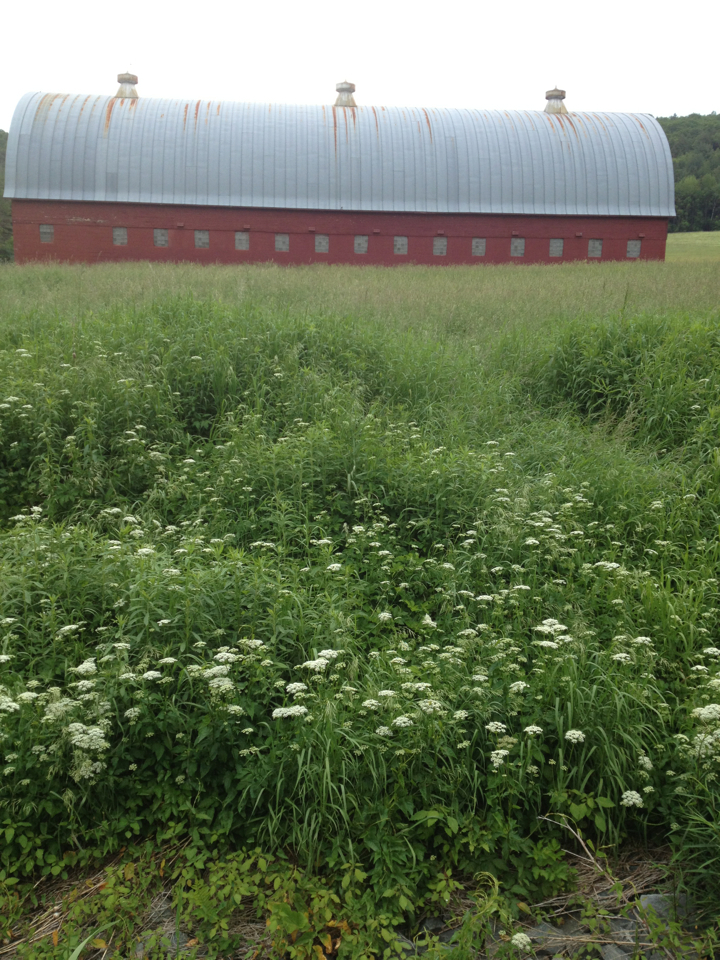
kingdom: Plantae
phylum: Tracheophyta
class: Magnoliopsida
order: Apiales
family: Apiaceae
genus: Anthriscus
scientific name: Anthriscus sylvestris
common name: Cow parsley
